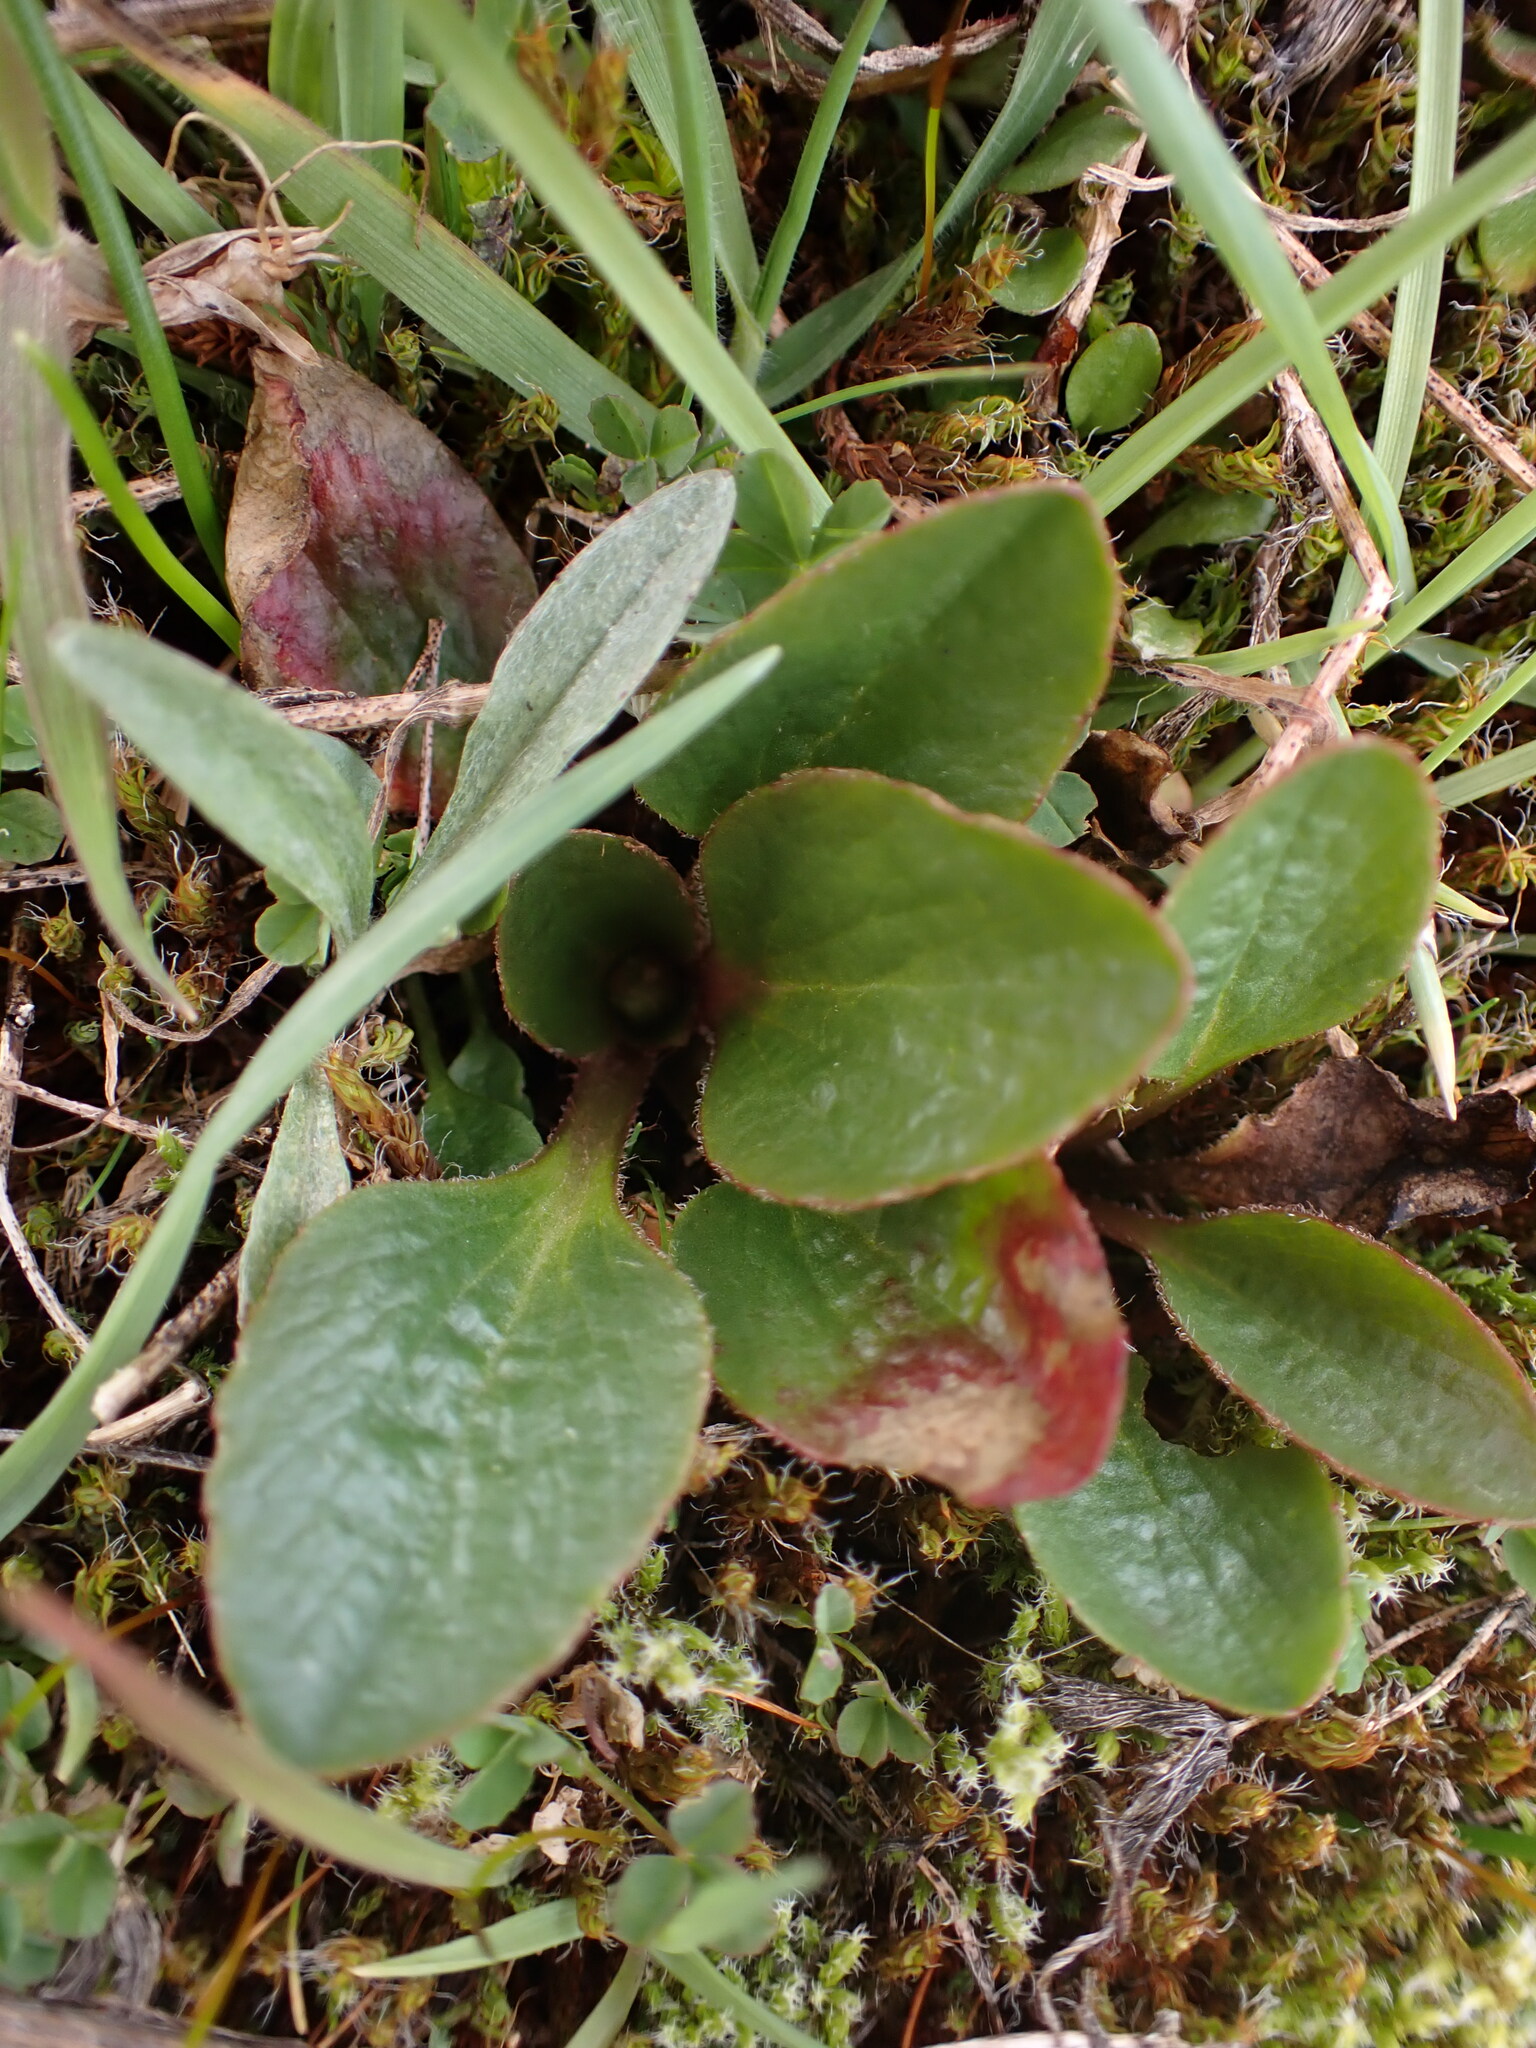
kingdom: Plantae
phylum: Tracheophyta
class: Magnoliopsida
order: Saxifragales
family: Saxifragaceae
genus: Micranthes
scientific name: Micranthes integrifolia
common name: Wholeleaf saxifrage
